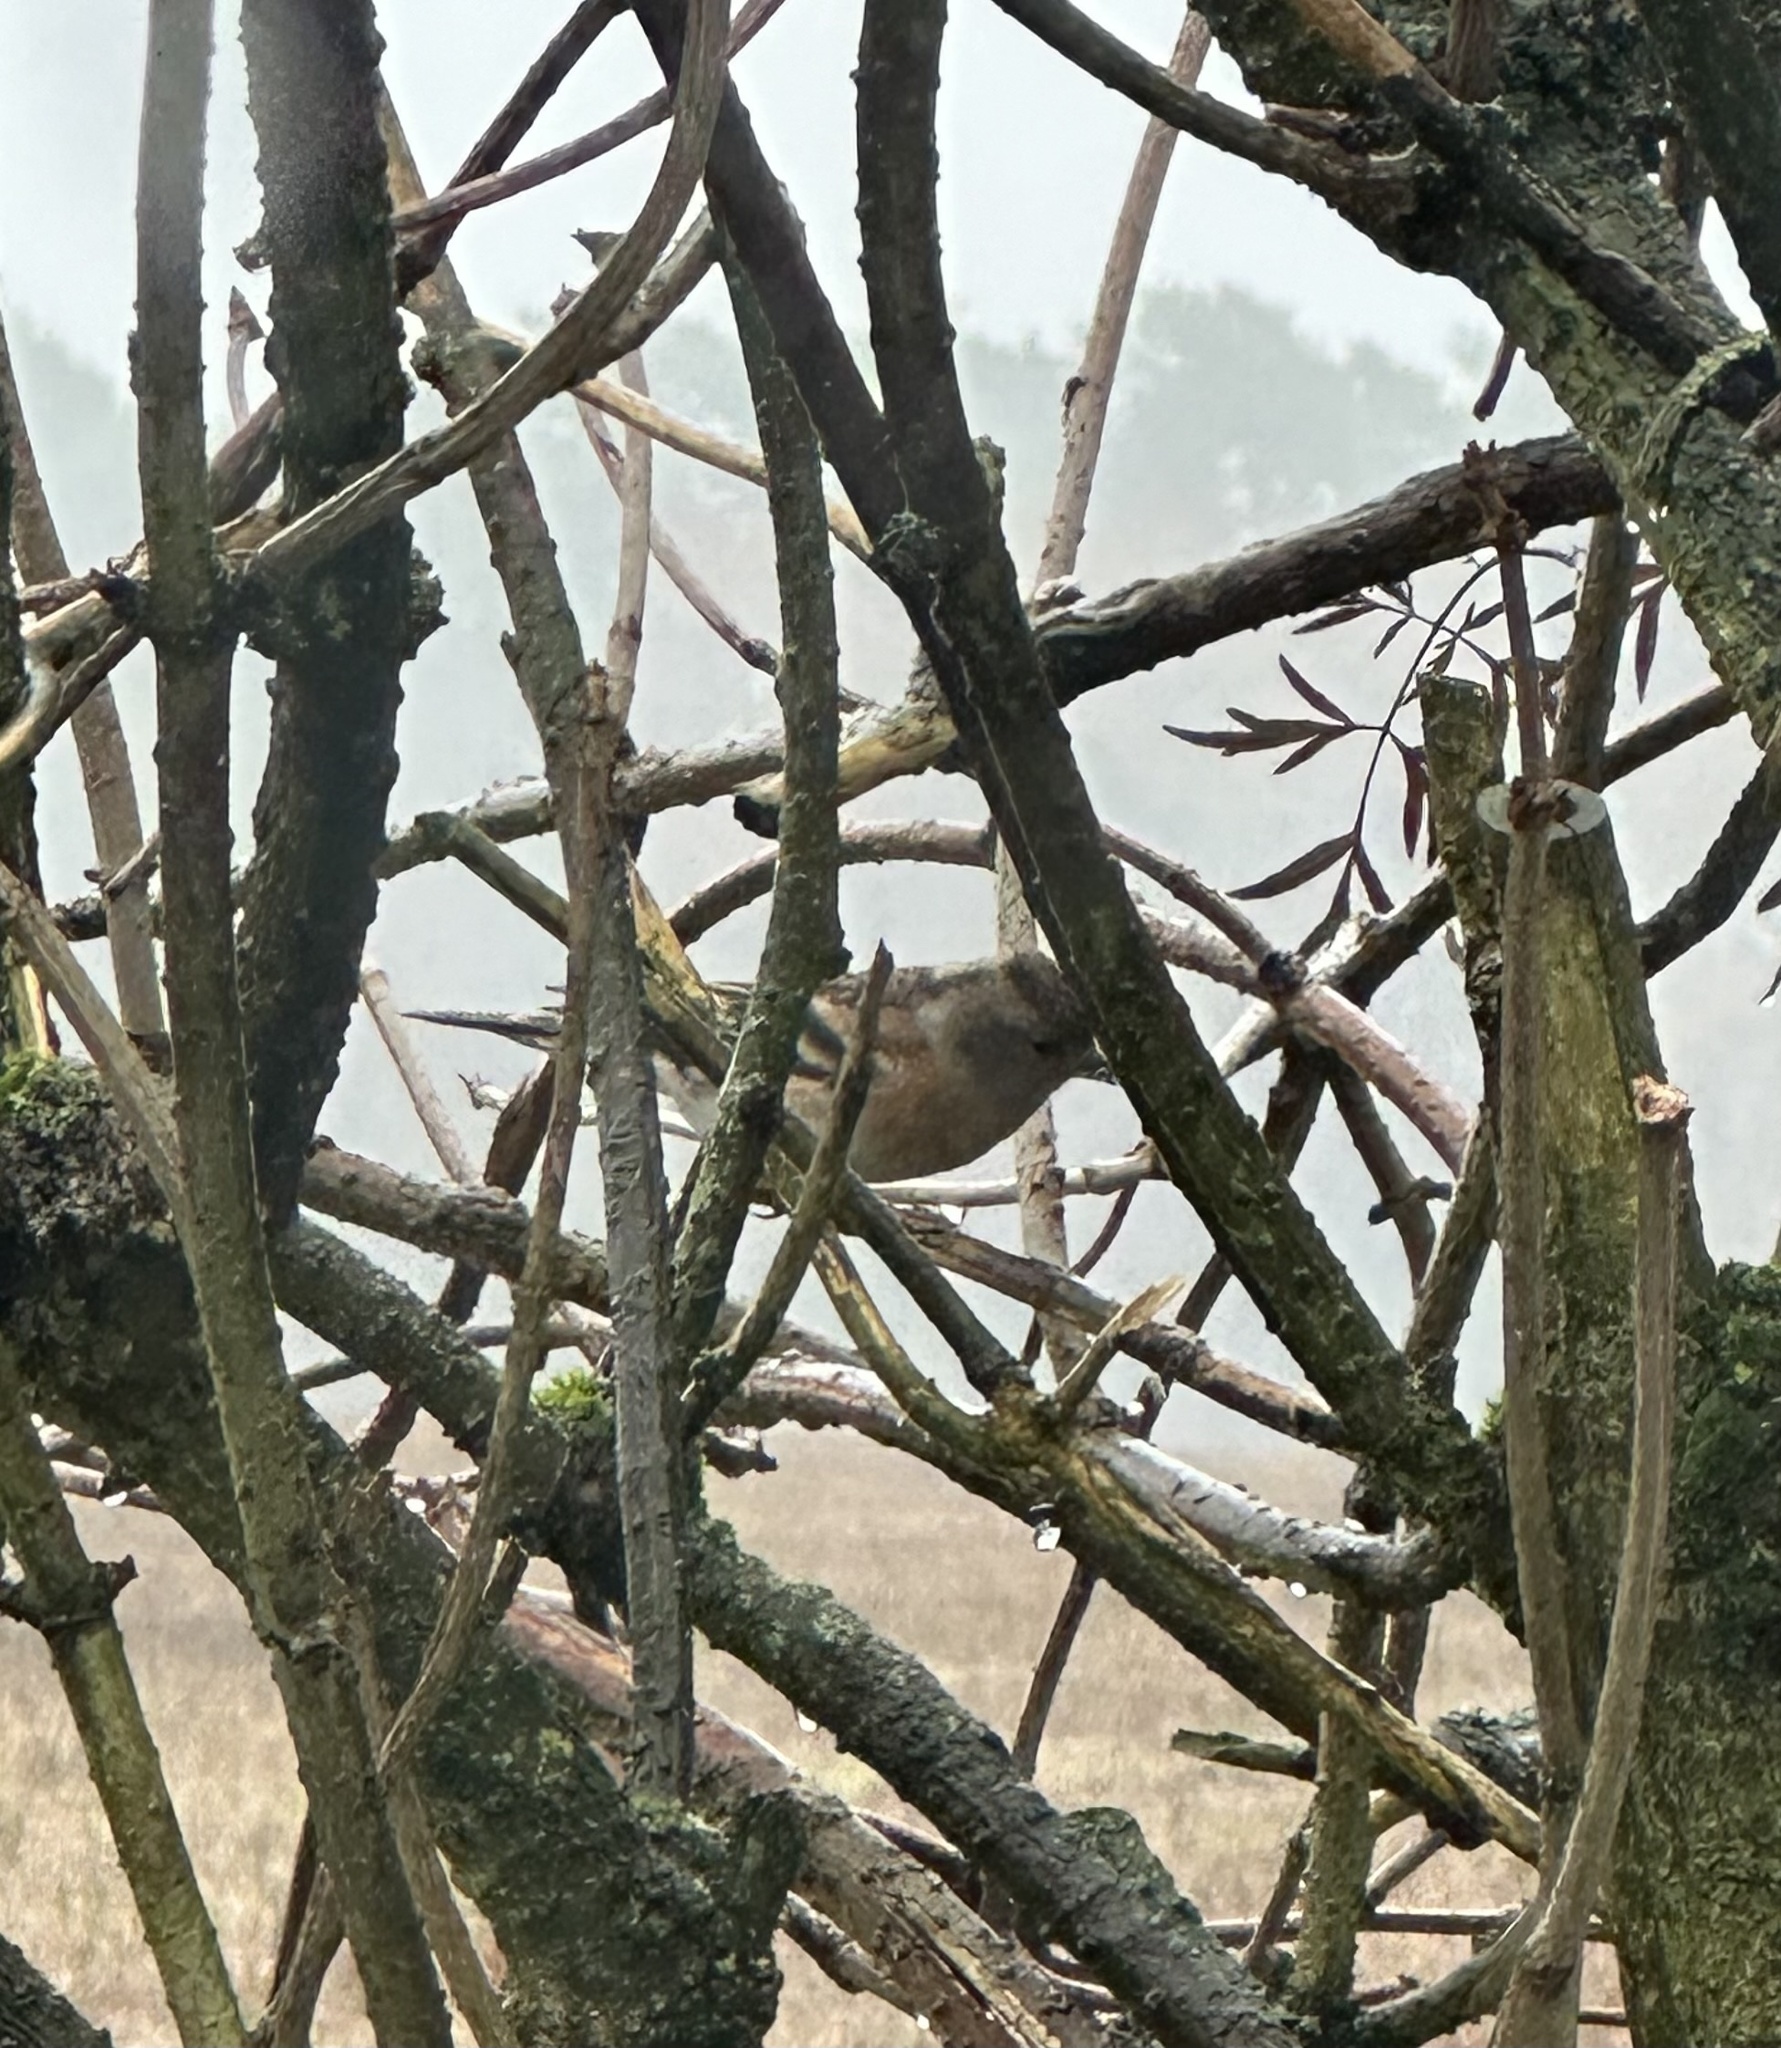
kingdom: Animalia
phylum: Chordata
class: Aves
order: Passeriformes
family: Fringillidae
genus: Fringilla
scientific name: Fringilla montifringilla
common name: Brambling
